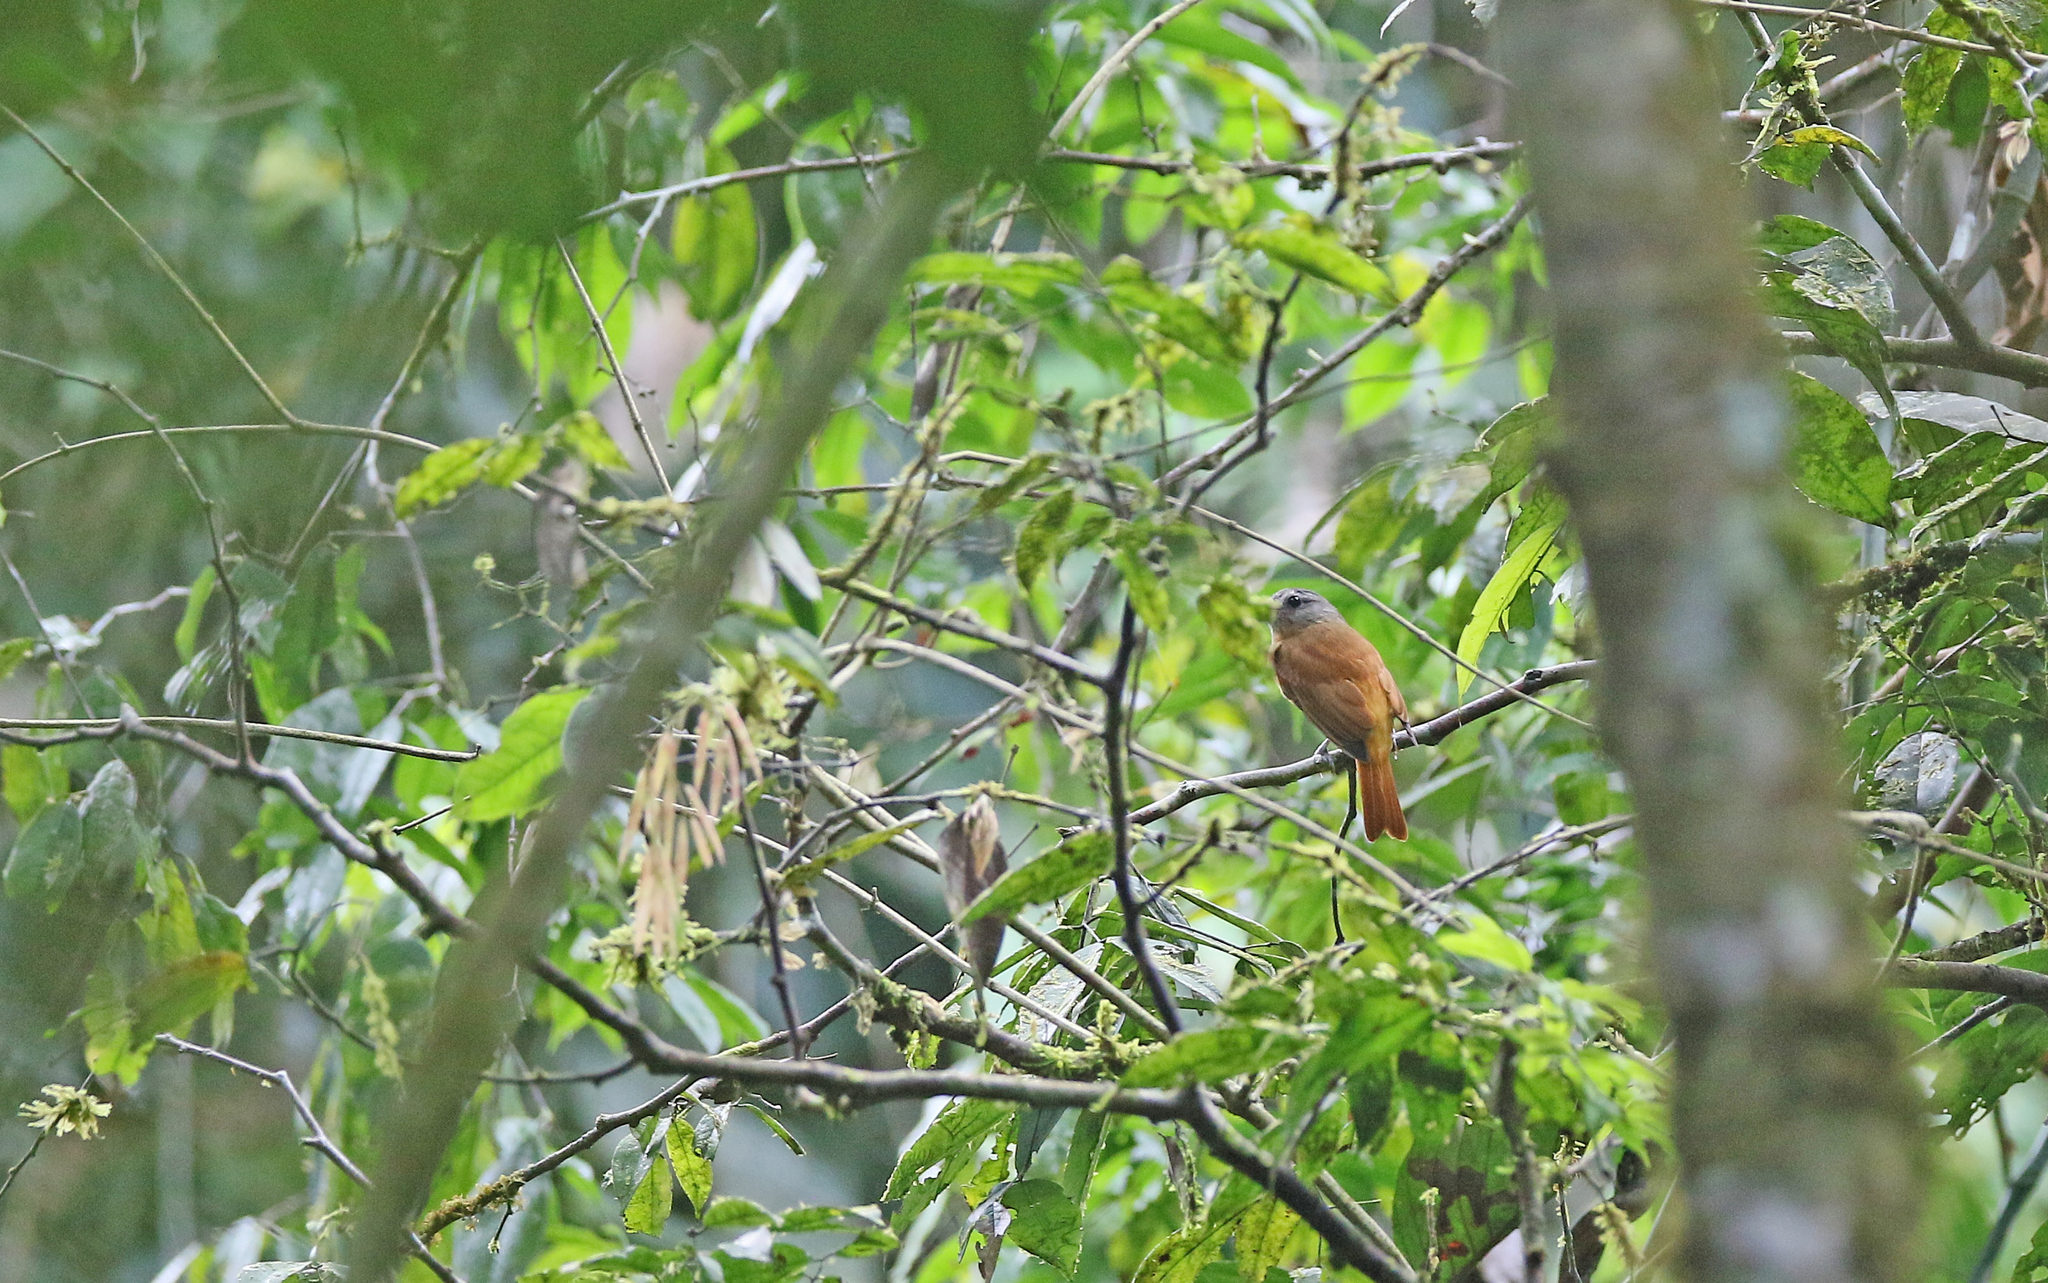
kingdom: Animalia
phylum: Chordata
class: Aves
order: Passeriformes
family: Tyrannidae
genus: Attila
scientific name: Attila citriniventris
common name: Citron-bellied attila
